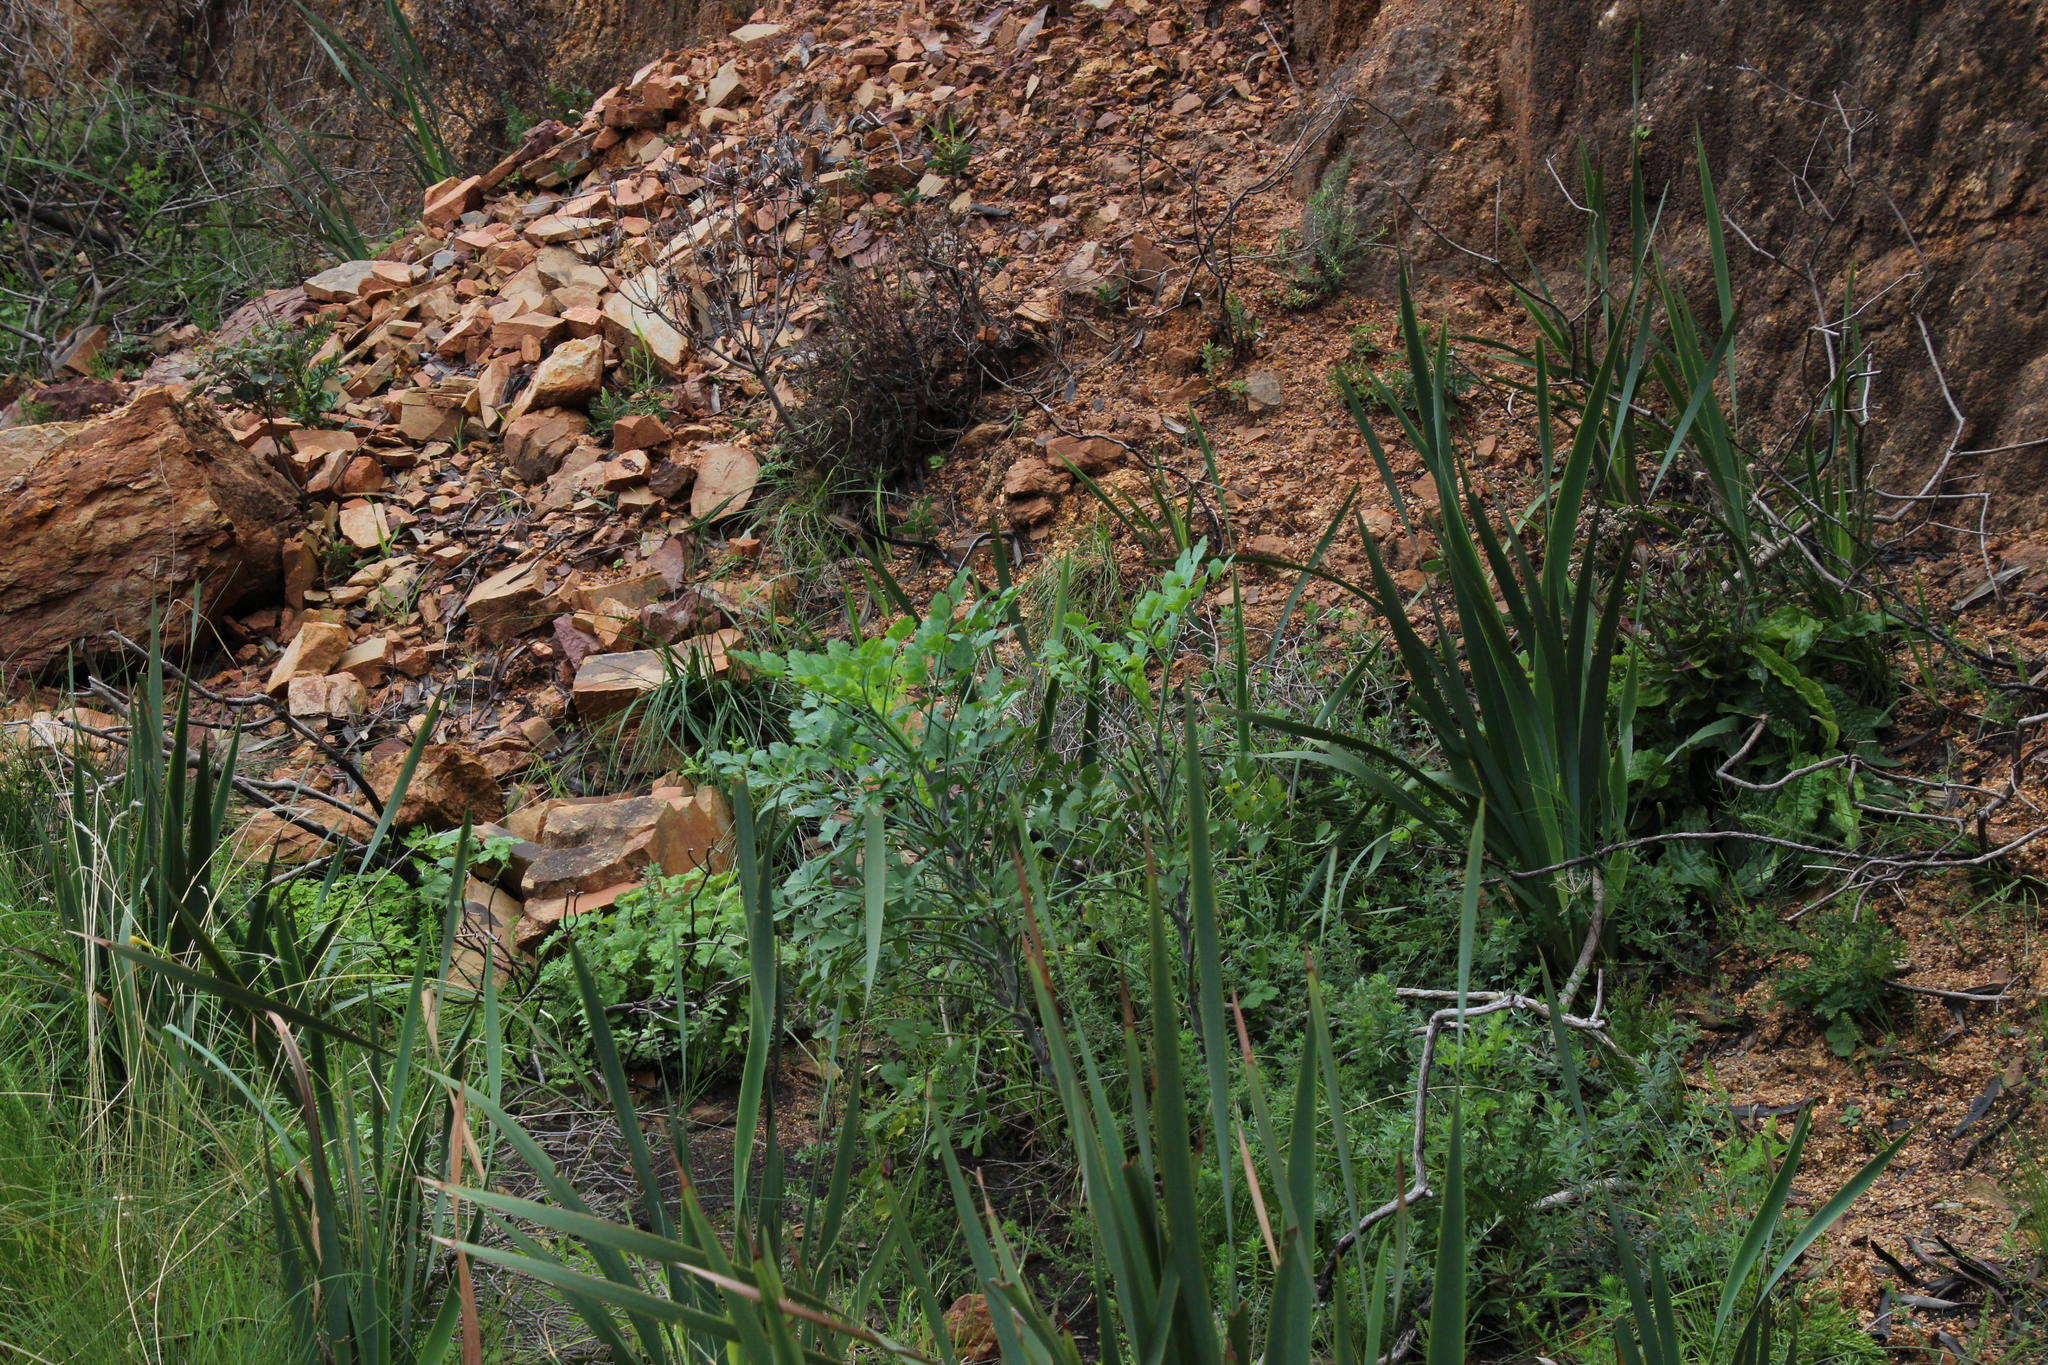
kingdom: Plantae
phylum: Tracheophyta
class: Magnoliopsida
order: Apiales
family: Apiaceae
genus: Notobubon
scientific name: Notobubon galbanum
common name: Blisterbush
